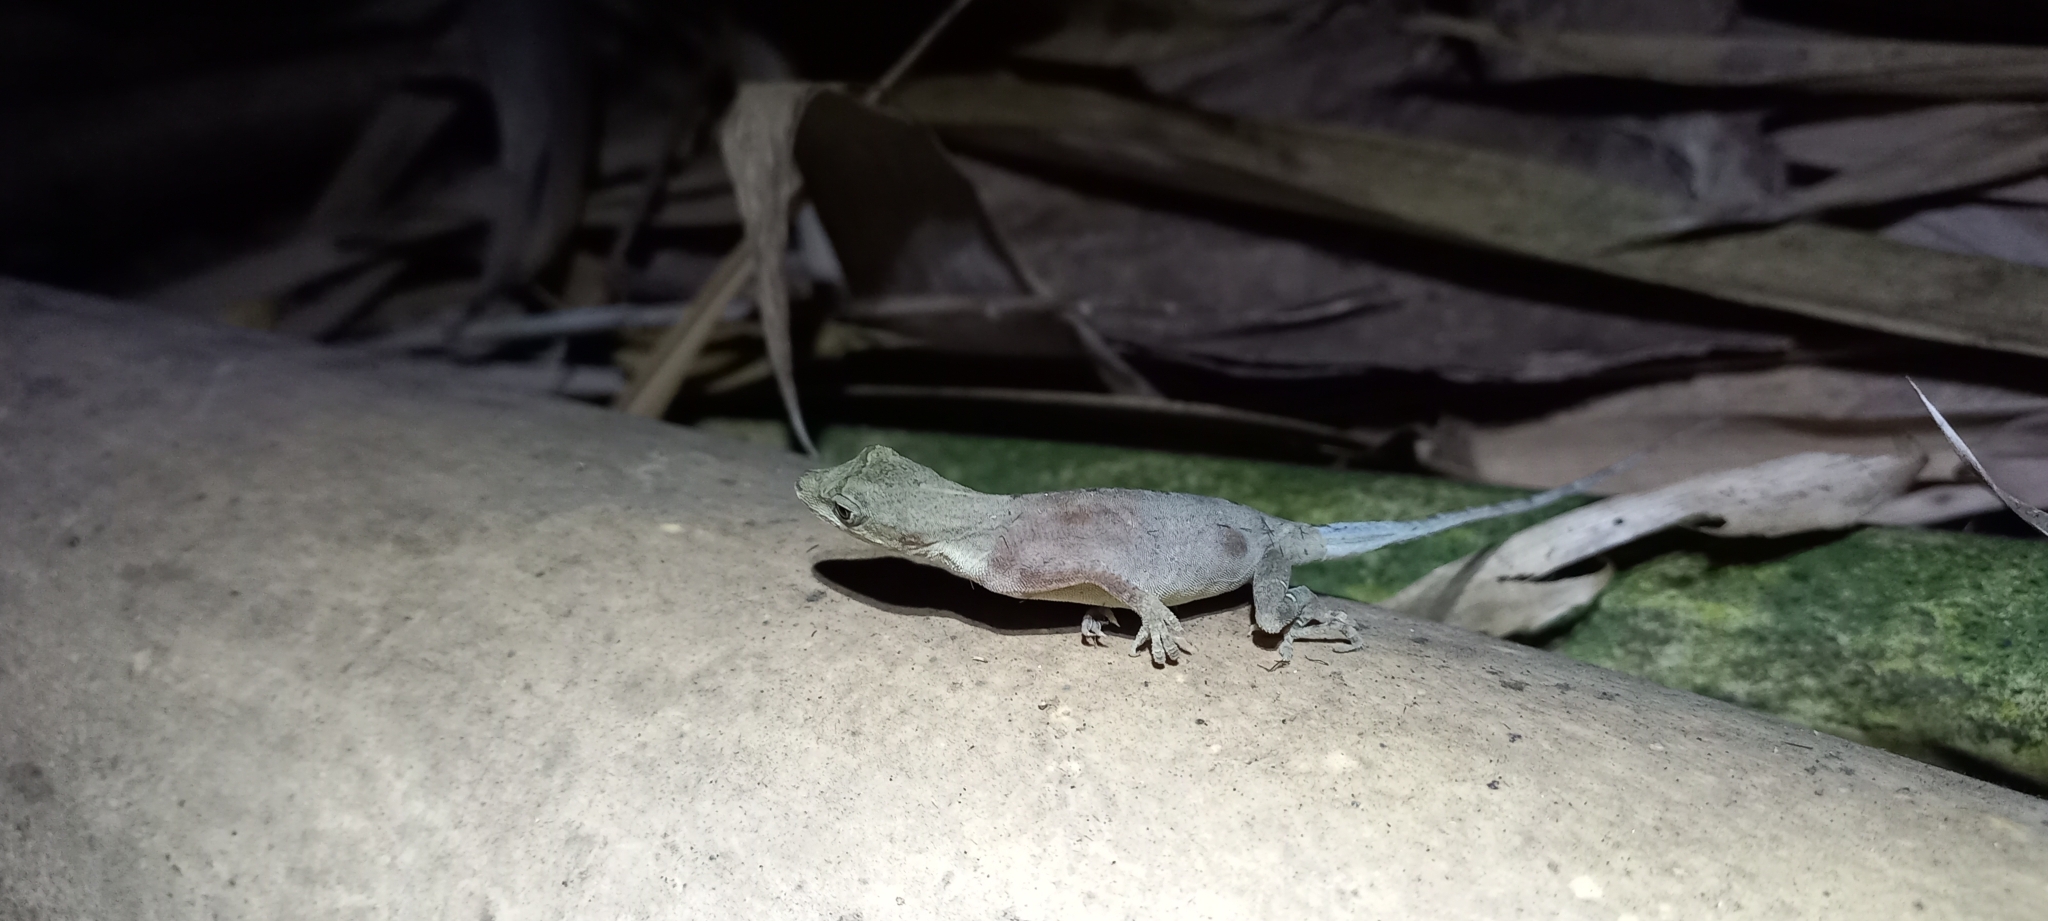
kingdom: Animalia
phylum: Chordata
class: Squamata
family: Dactyloidae
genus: Anolis
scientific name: Anolis antonii
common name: Anton's anole
